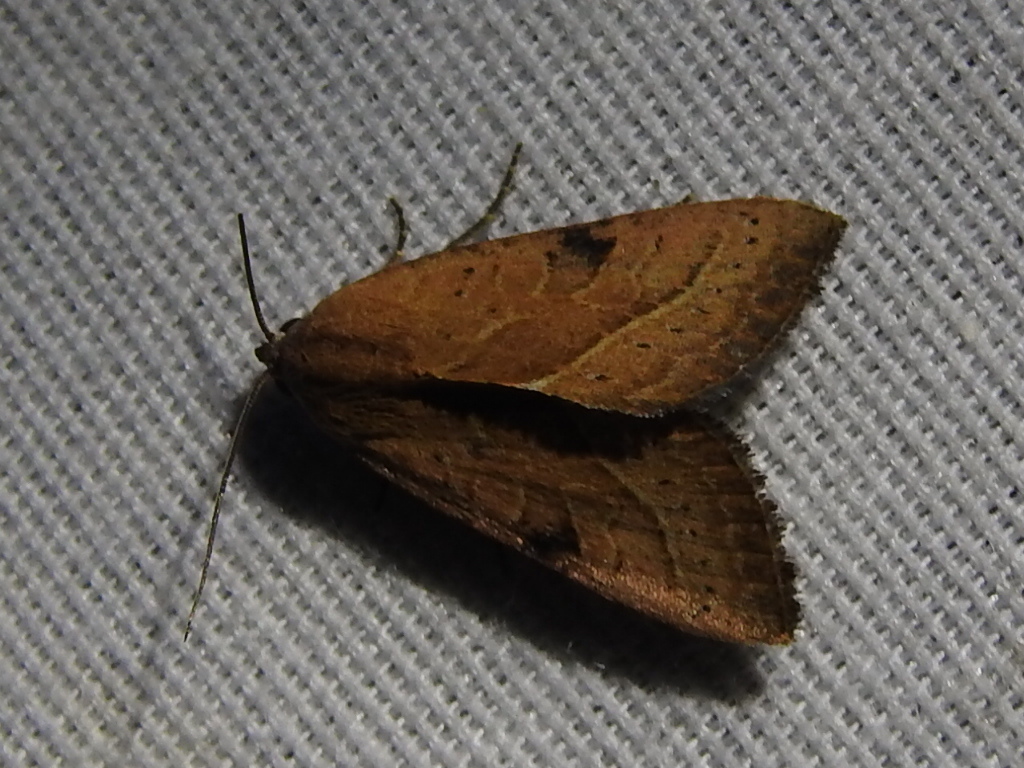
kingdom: Animalia
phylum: Arthropoda
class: Insecta
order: Lepidoptera
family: Noctuidae
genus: Galgula
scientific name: Galgula partita
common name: Wedgeling
